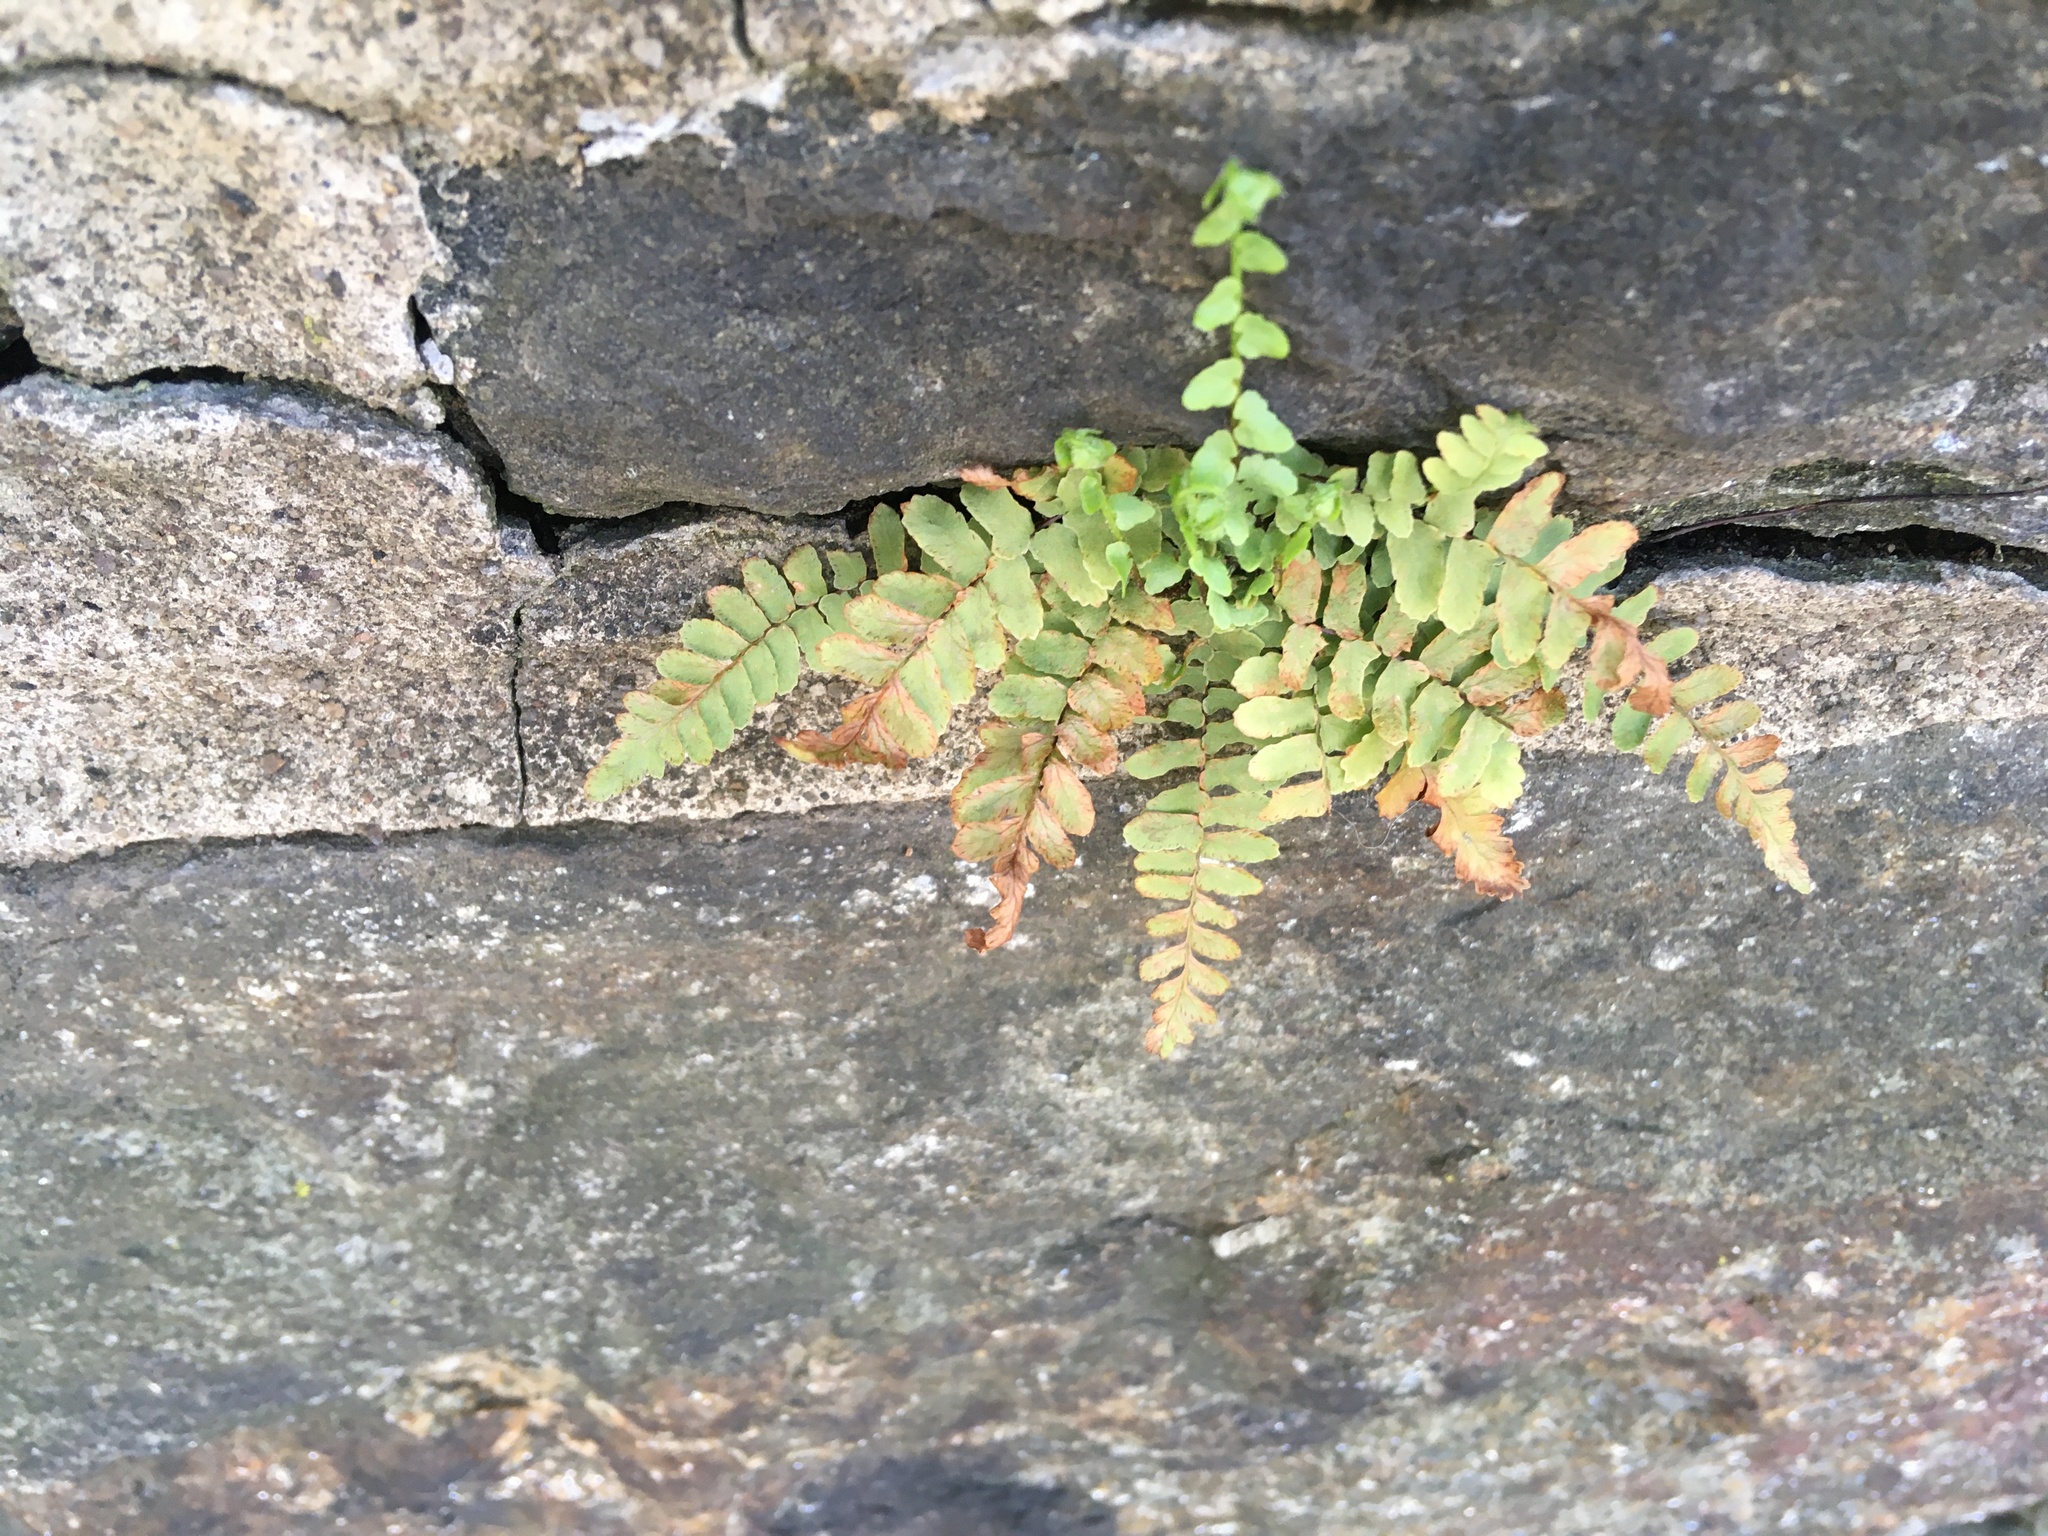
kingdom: Plantae
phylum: Tracheophyta
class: Polypodiopsida
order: Polypodiales
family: Aspleniaceae
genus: Asplenium
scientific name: Asplenium platyneuron
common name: Ebony spleenwort
